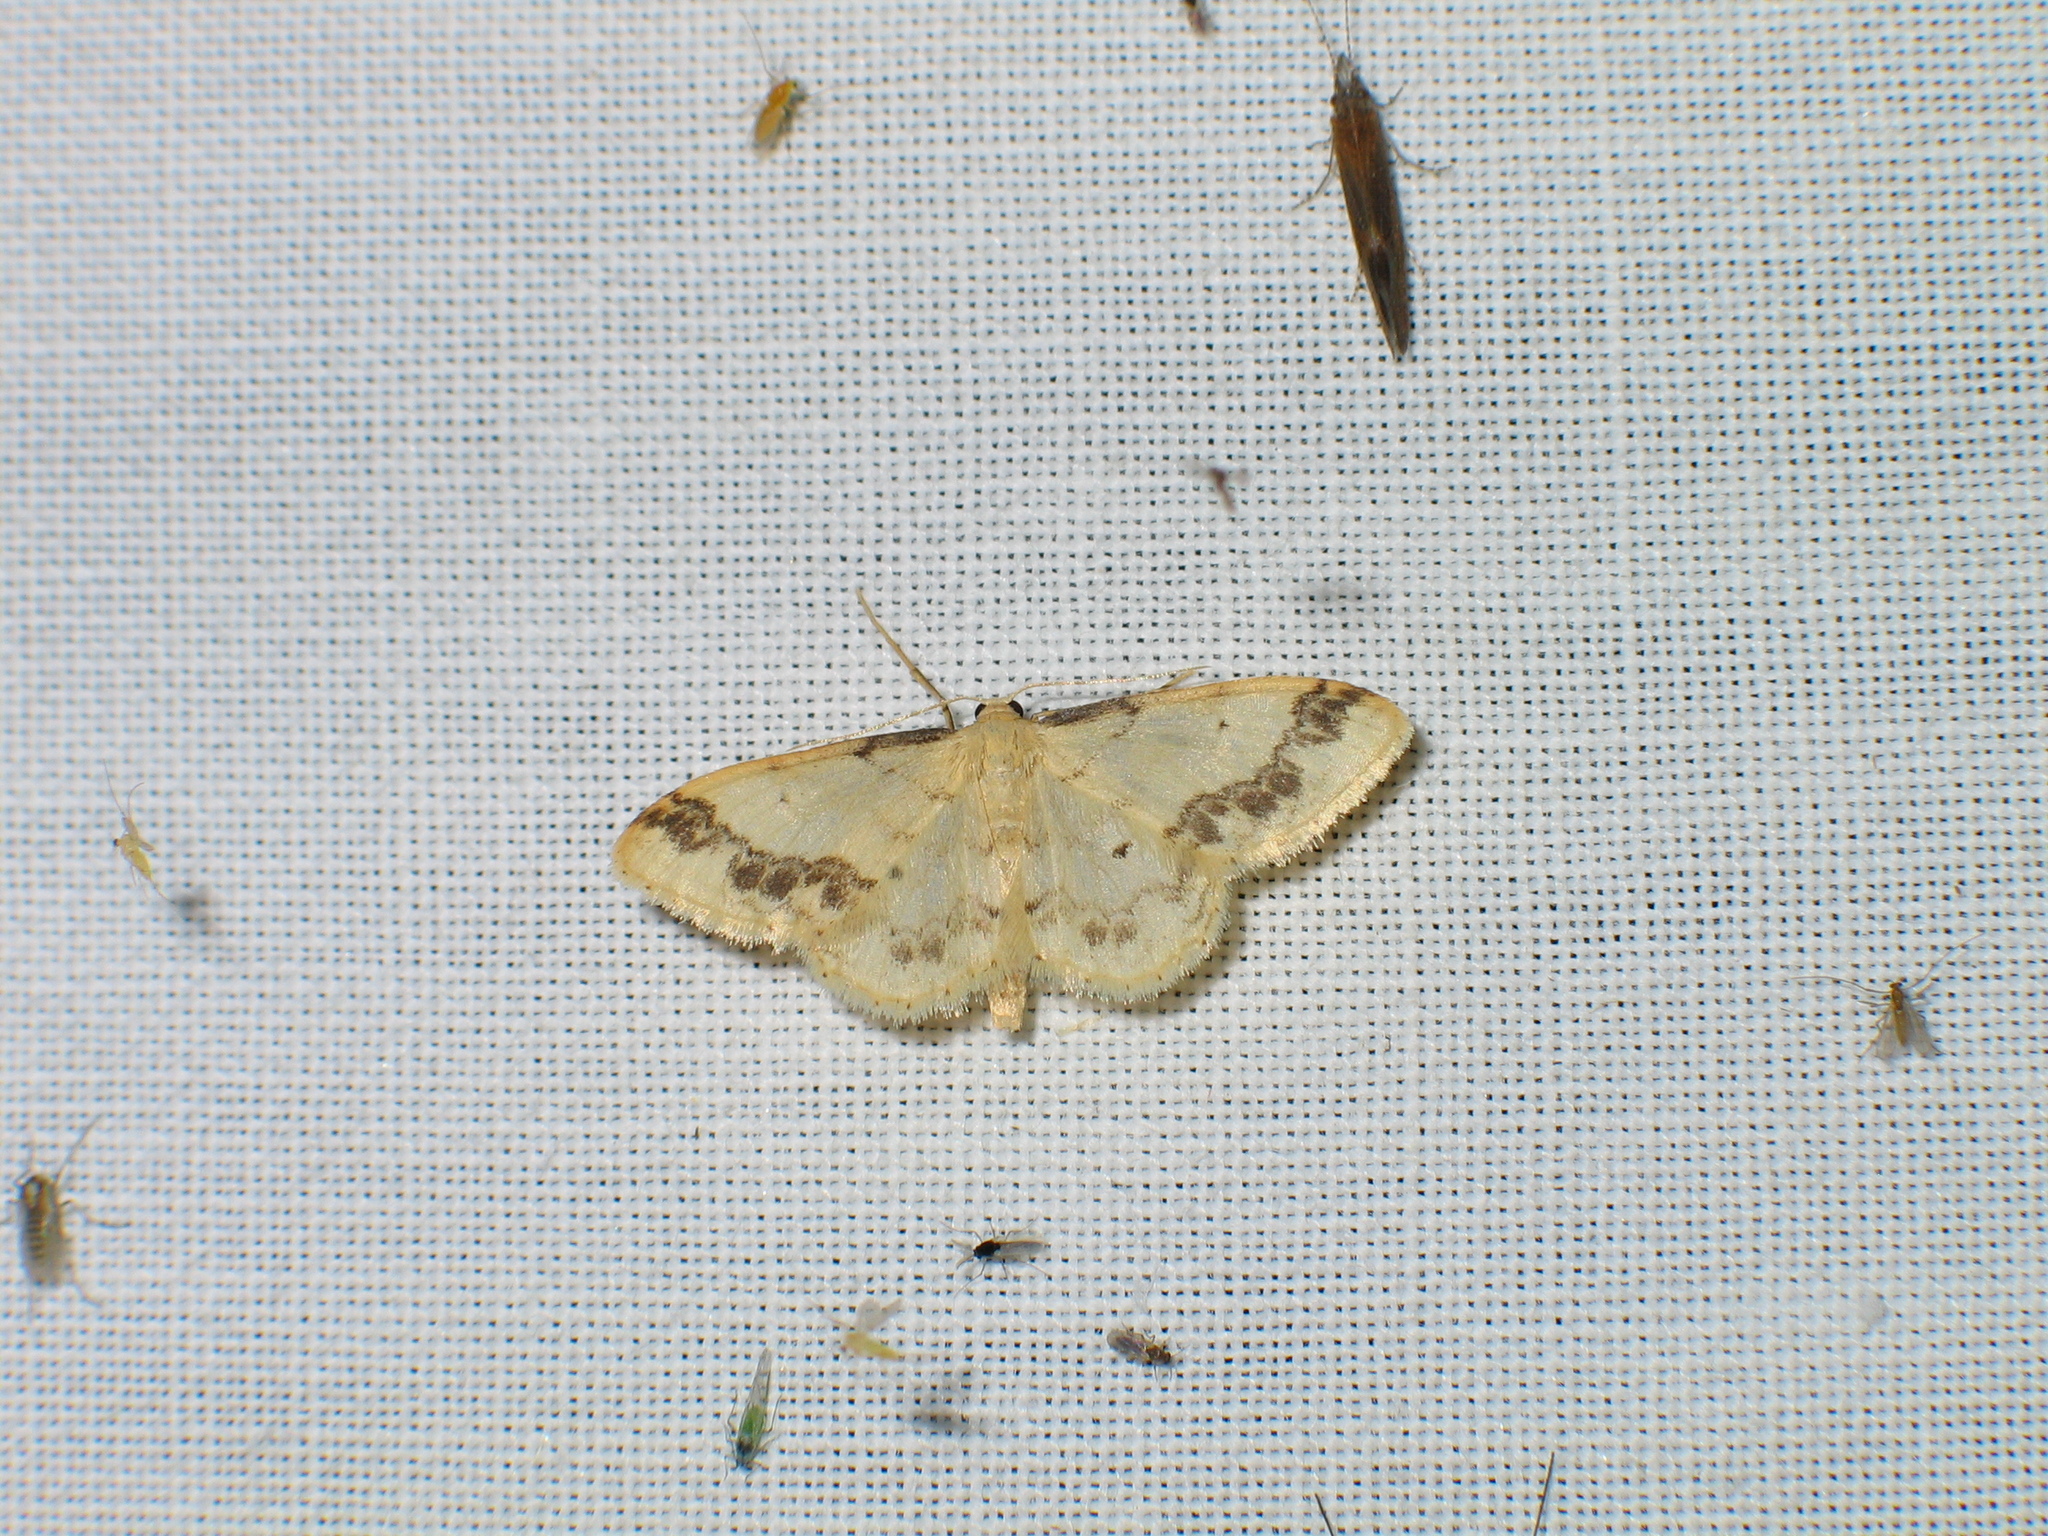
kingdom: Animalia
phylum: Arthropoda
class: Insecta
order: Lepidoptera
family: Geometridae
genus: Idaea
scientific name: Idaea trigeminata
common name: Treble brown spot
